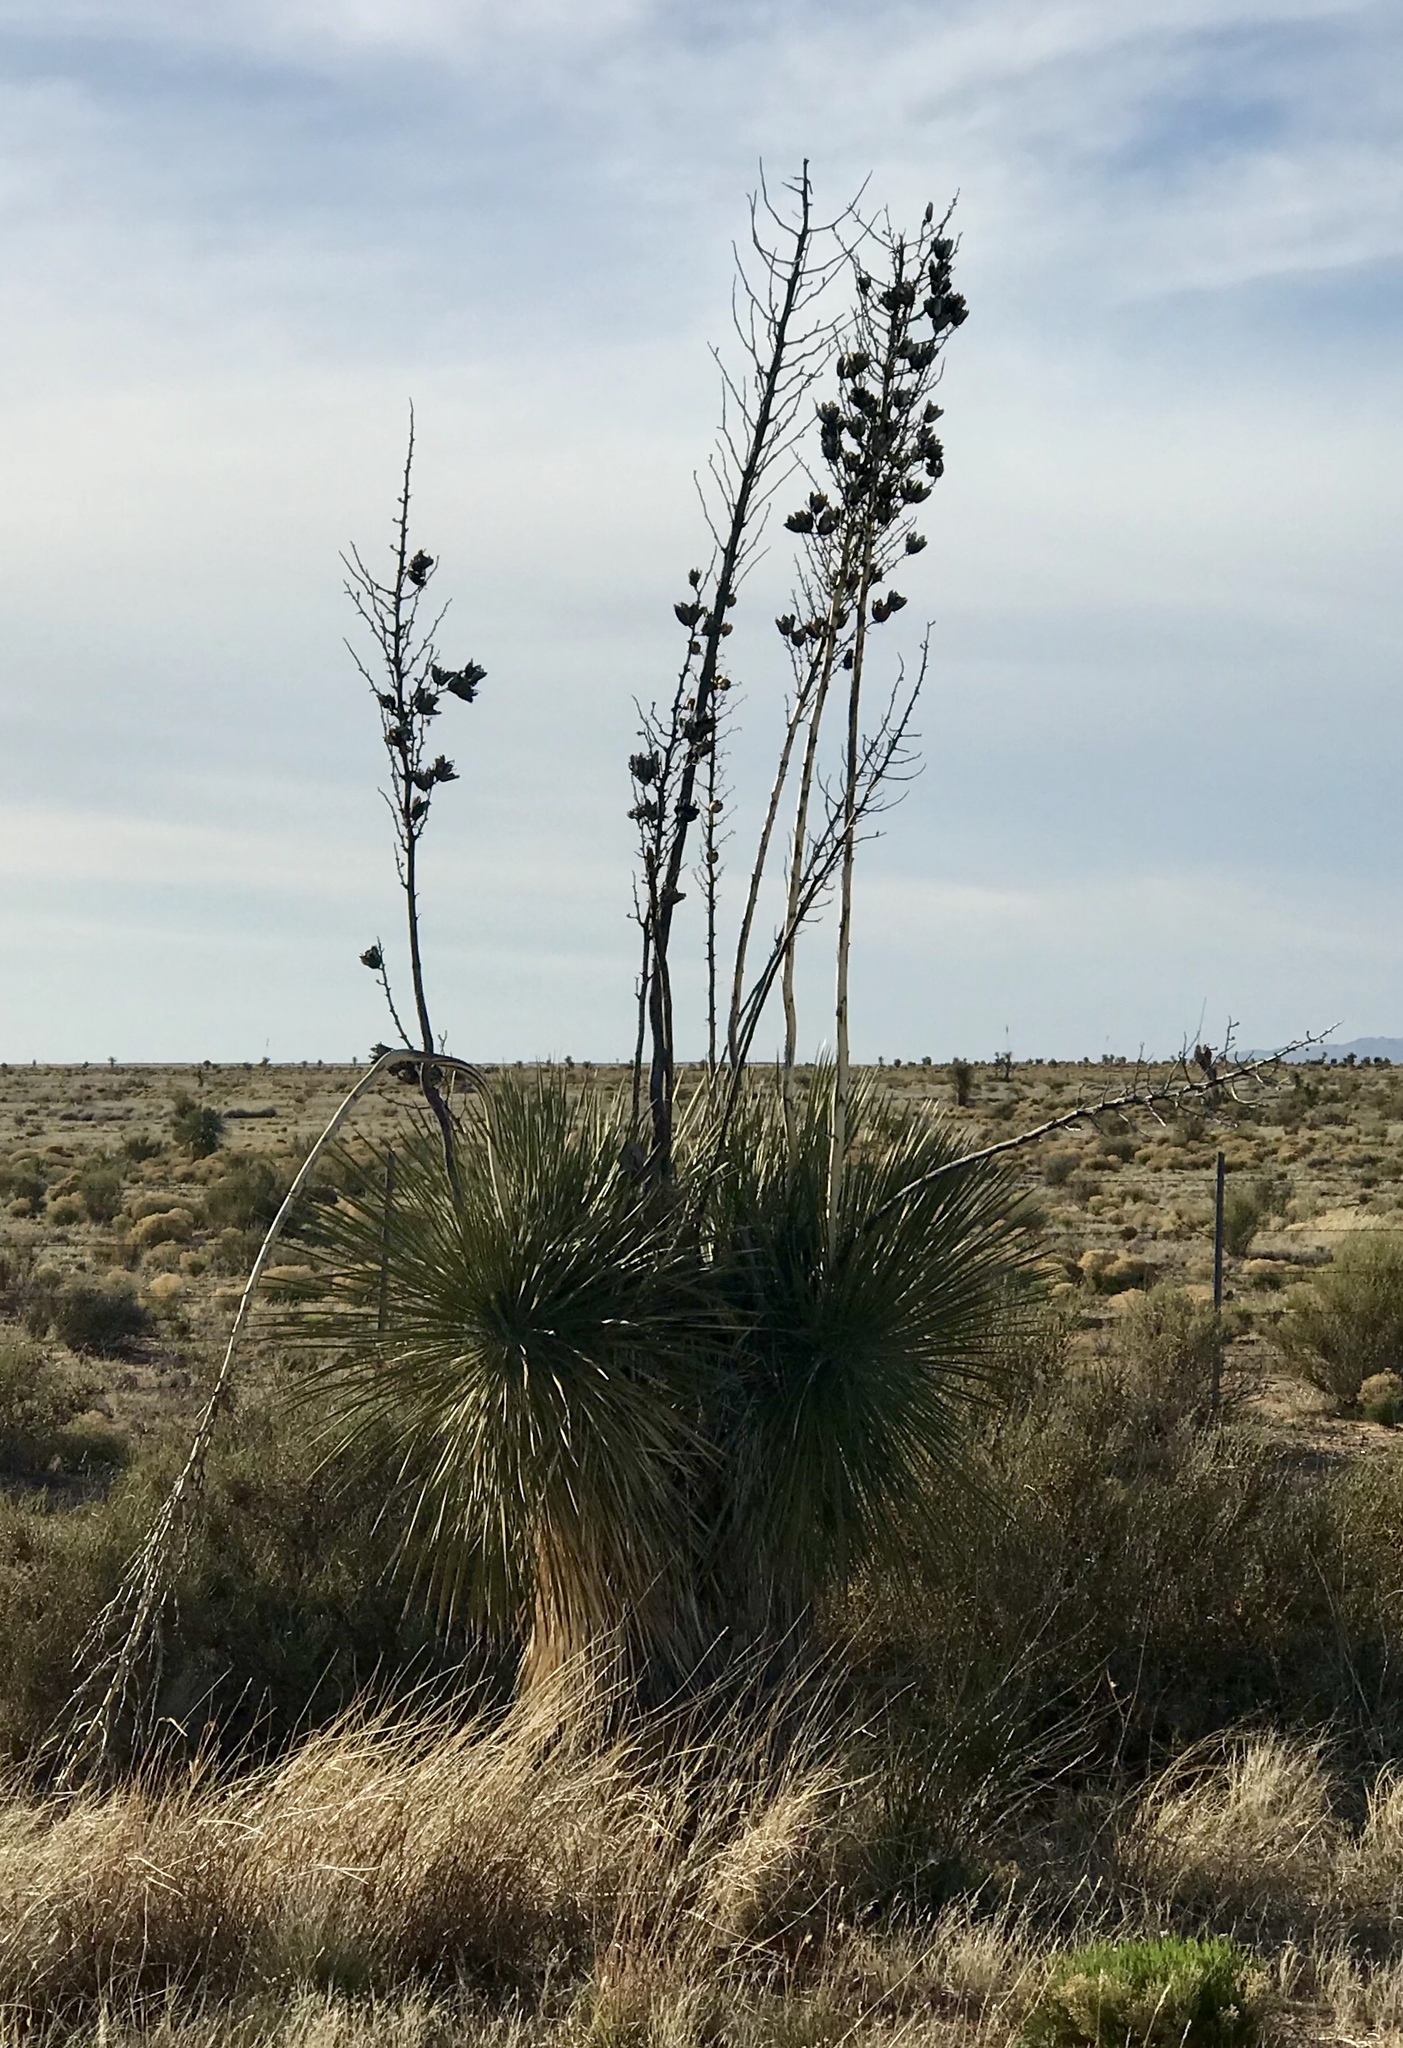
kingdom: Plantae
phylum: Tracheophyta
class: Liliopsida
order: Asparagales
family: Asparagaceae
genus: Yucca
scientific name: Yucca elata
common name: Palmella
